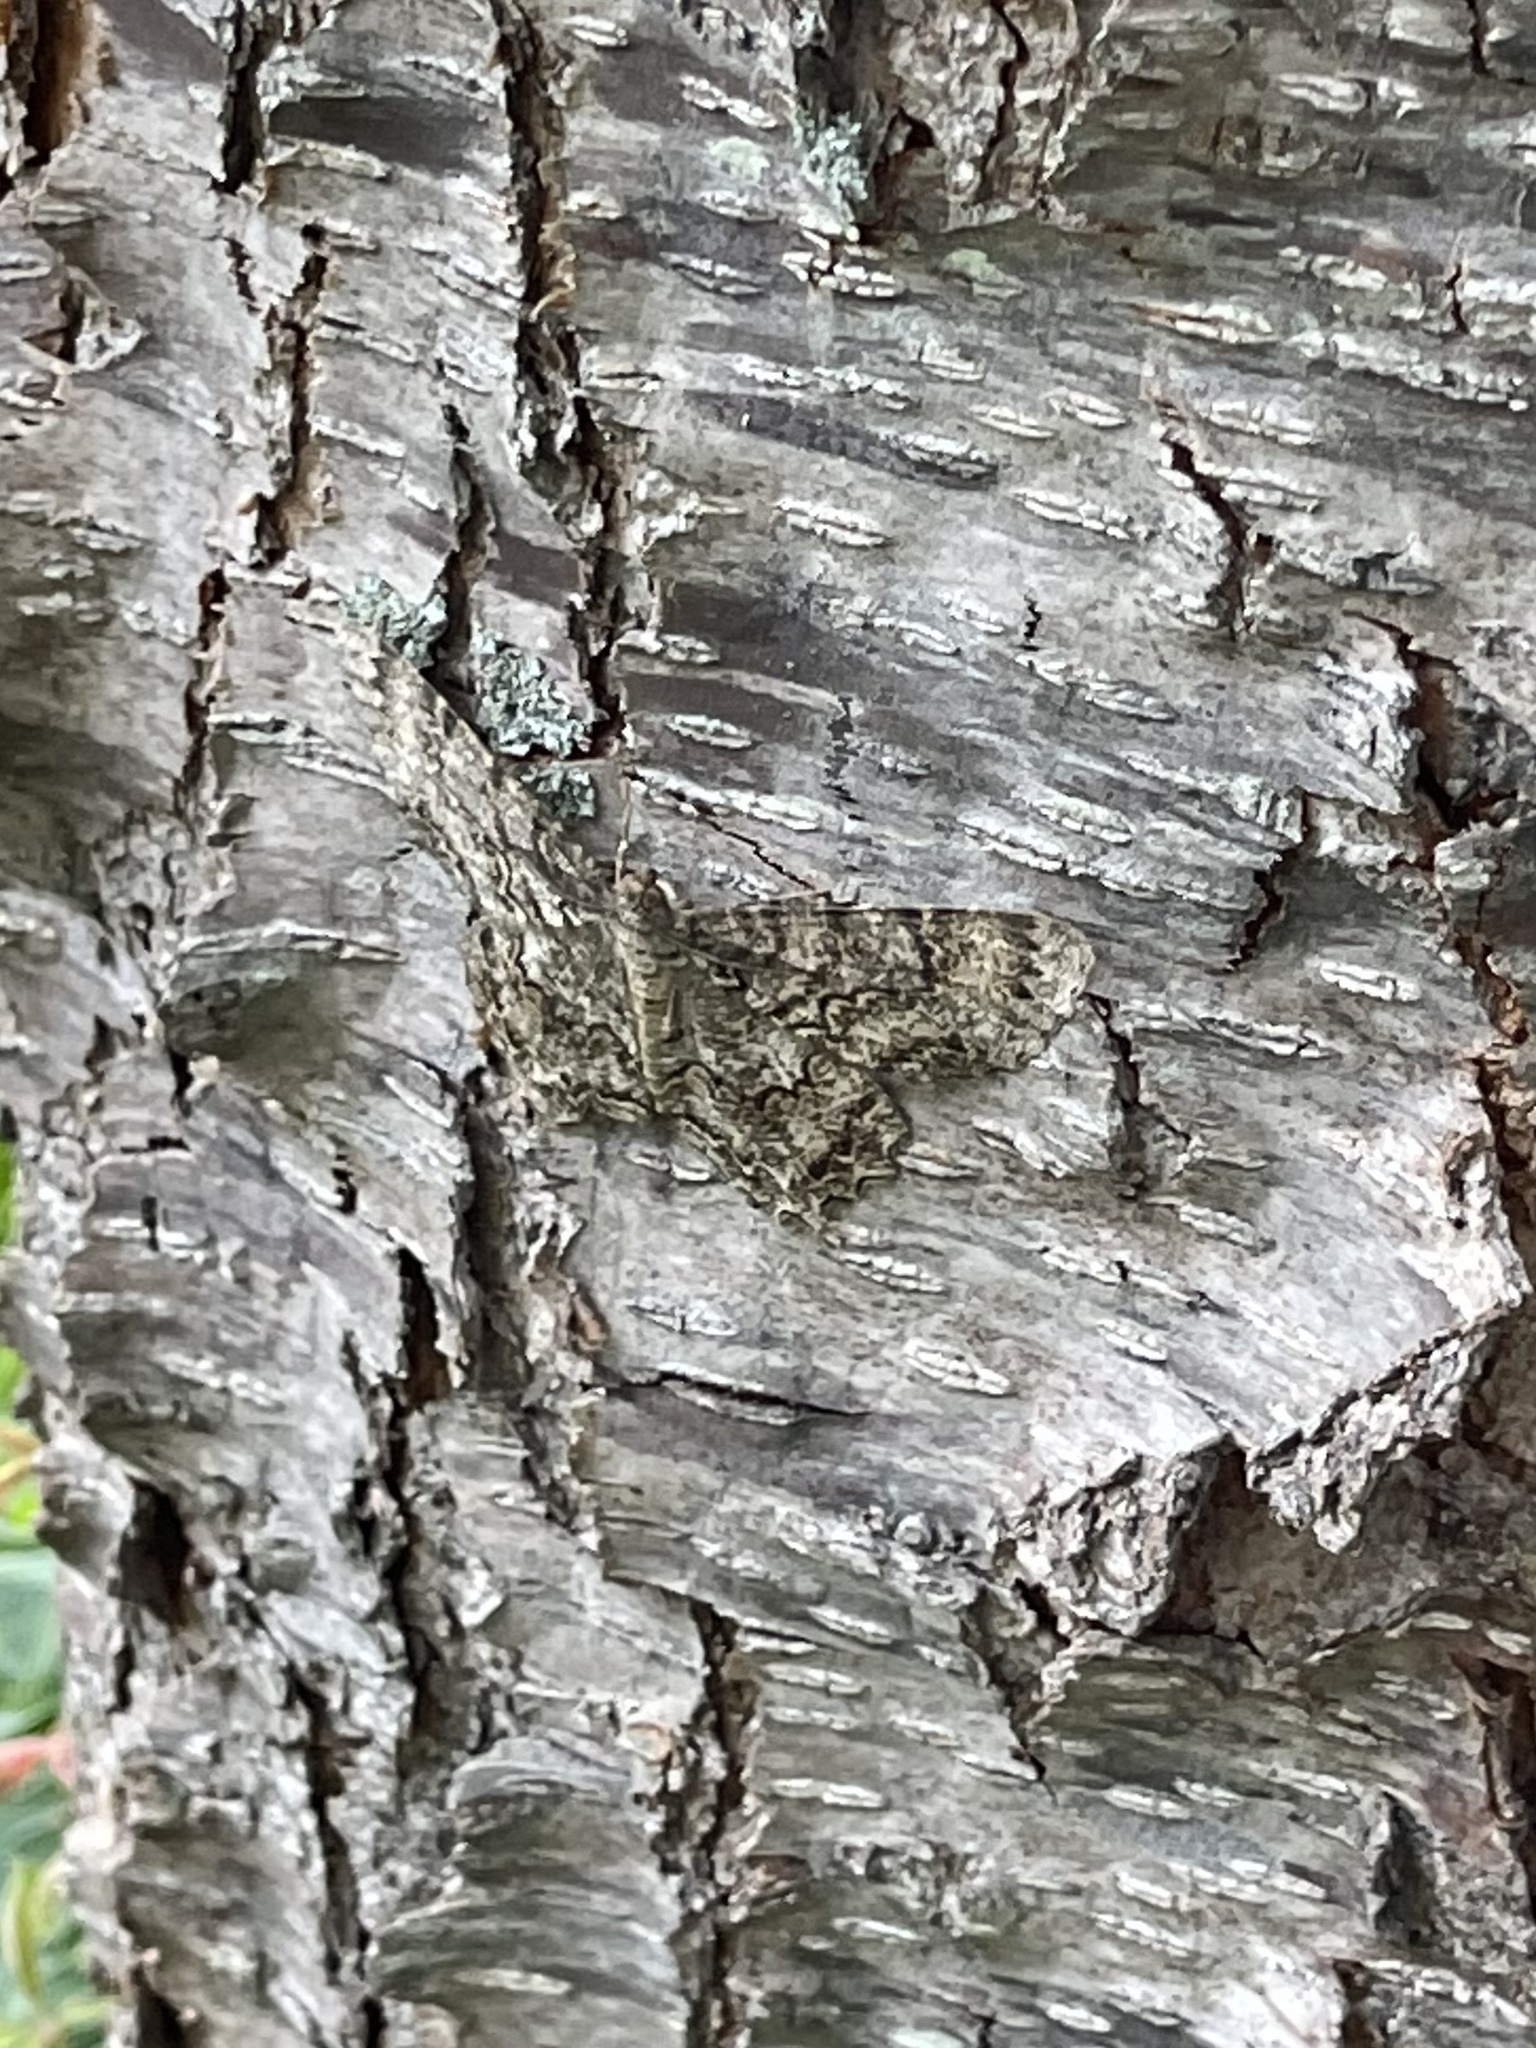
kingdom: Animalia
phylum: Arthropoda
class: Insecta
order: Lepidoptera
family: Geometridae
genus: Epimecis
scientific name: Epimecis hortaria
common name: Tulip-tree beauty
